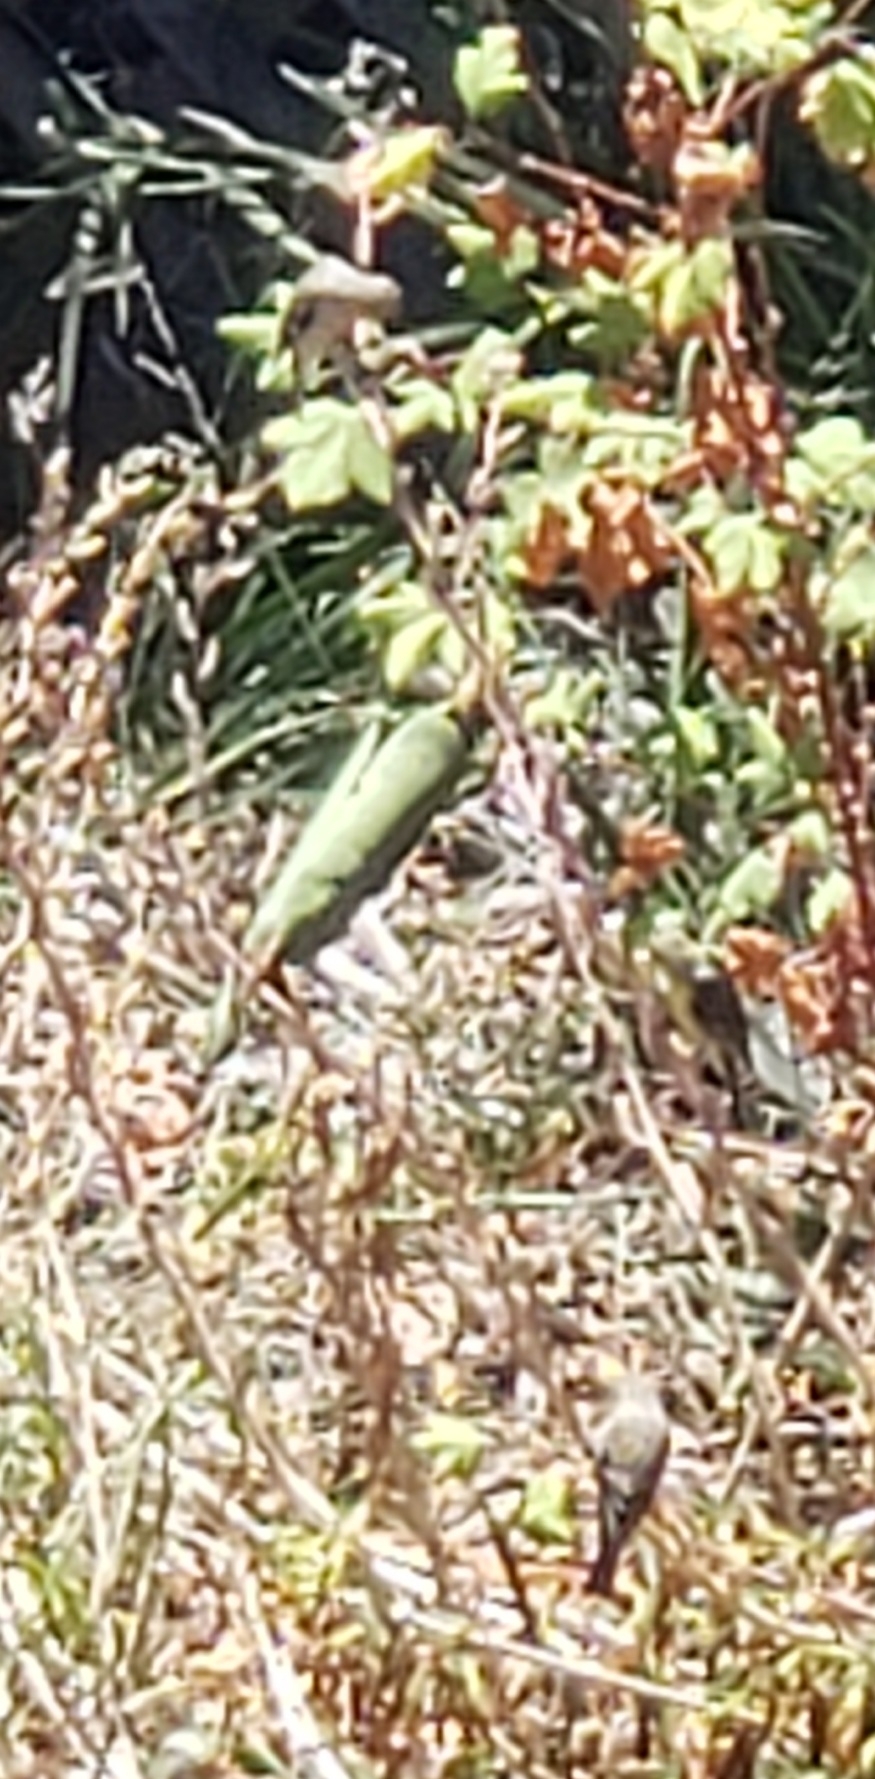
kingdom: Animalia
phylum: Chordata
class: Aves
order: Passeriformes
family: Fringillidae
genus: Spinus
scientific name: Spinus psaltria
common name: Lesser goldfinch
